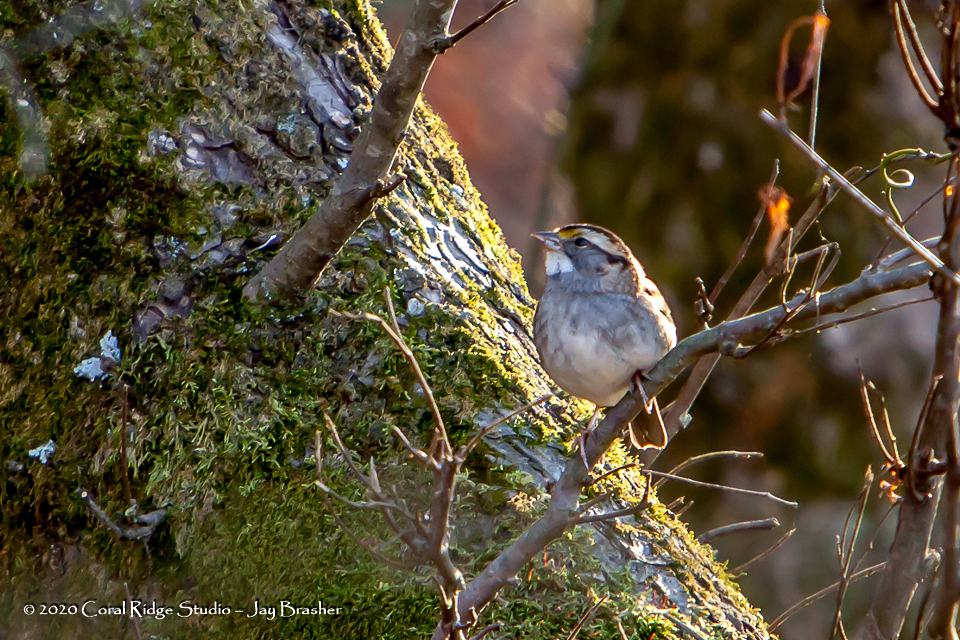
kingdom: Animalia
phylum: Chordata
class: Aves
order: Passeriformes
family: Passerellidae
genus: Zonotrichia
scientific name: Zonotrichia albicollis
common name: White-throated sparrow
